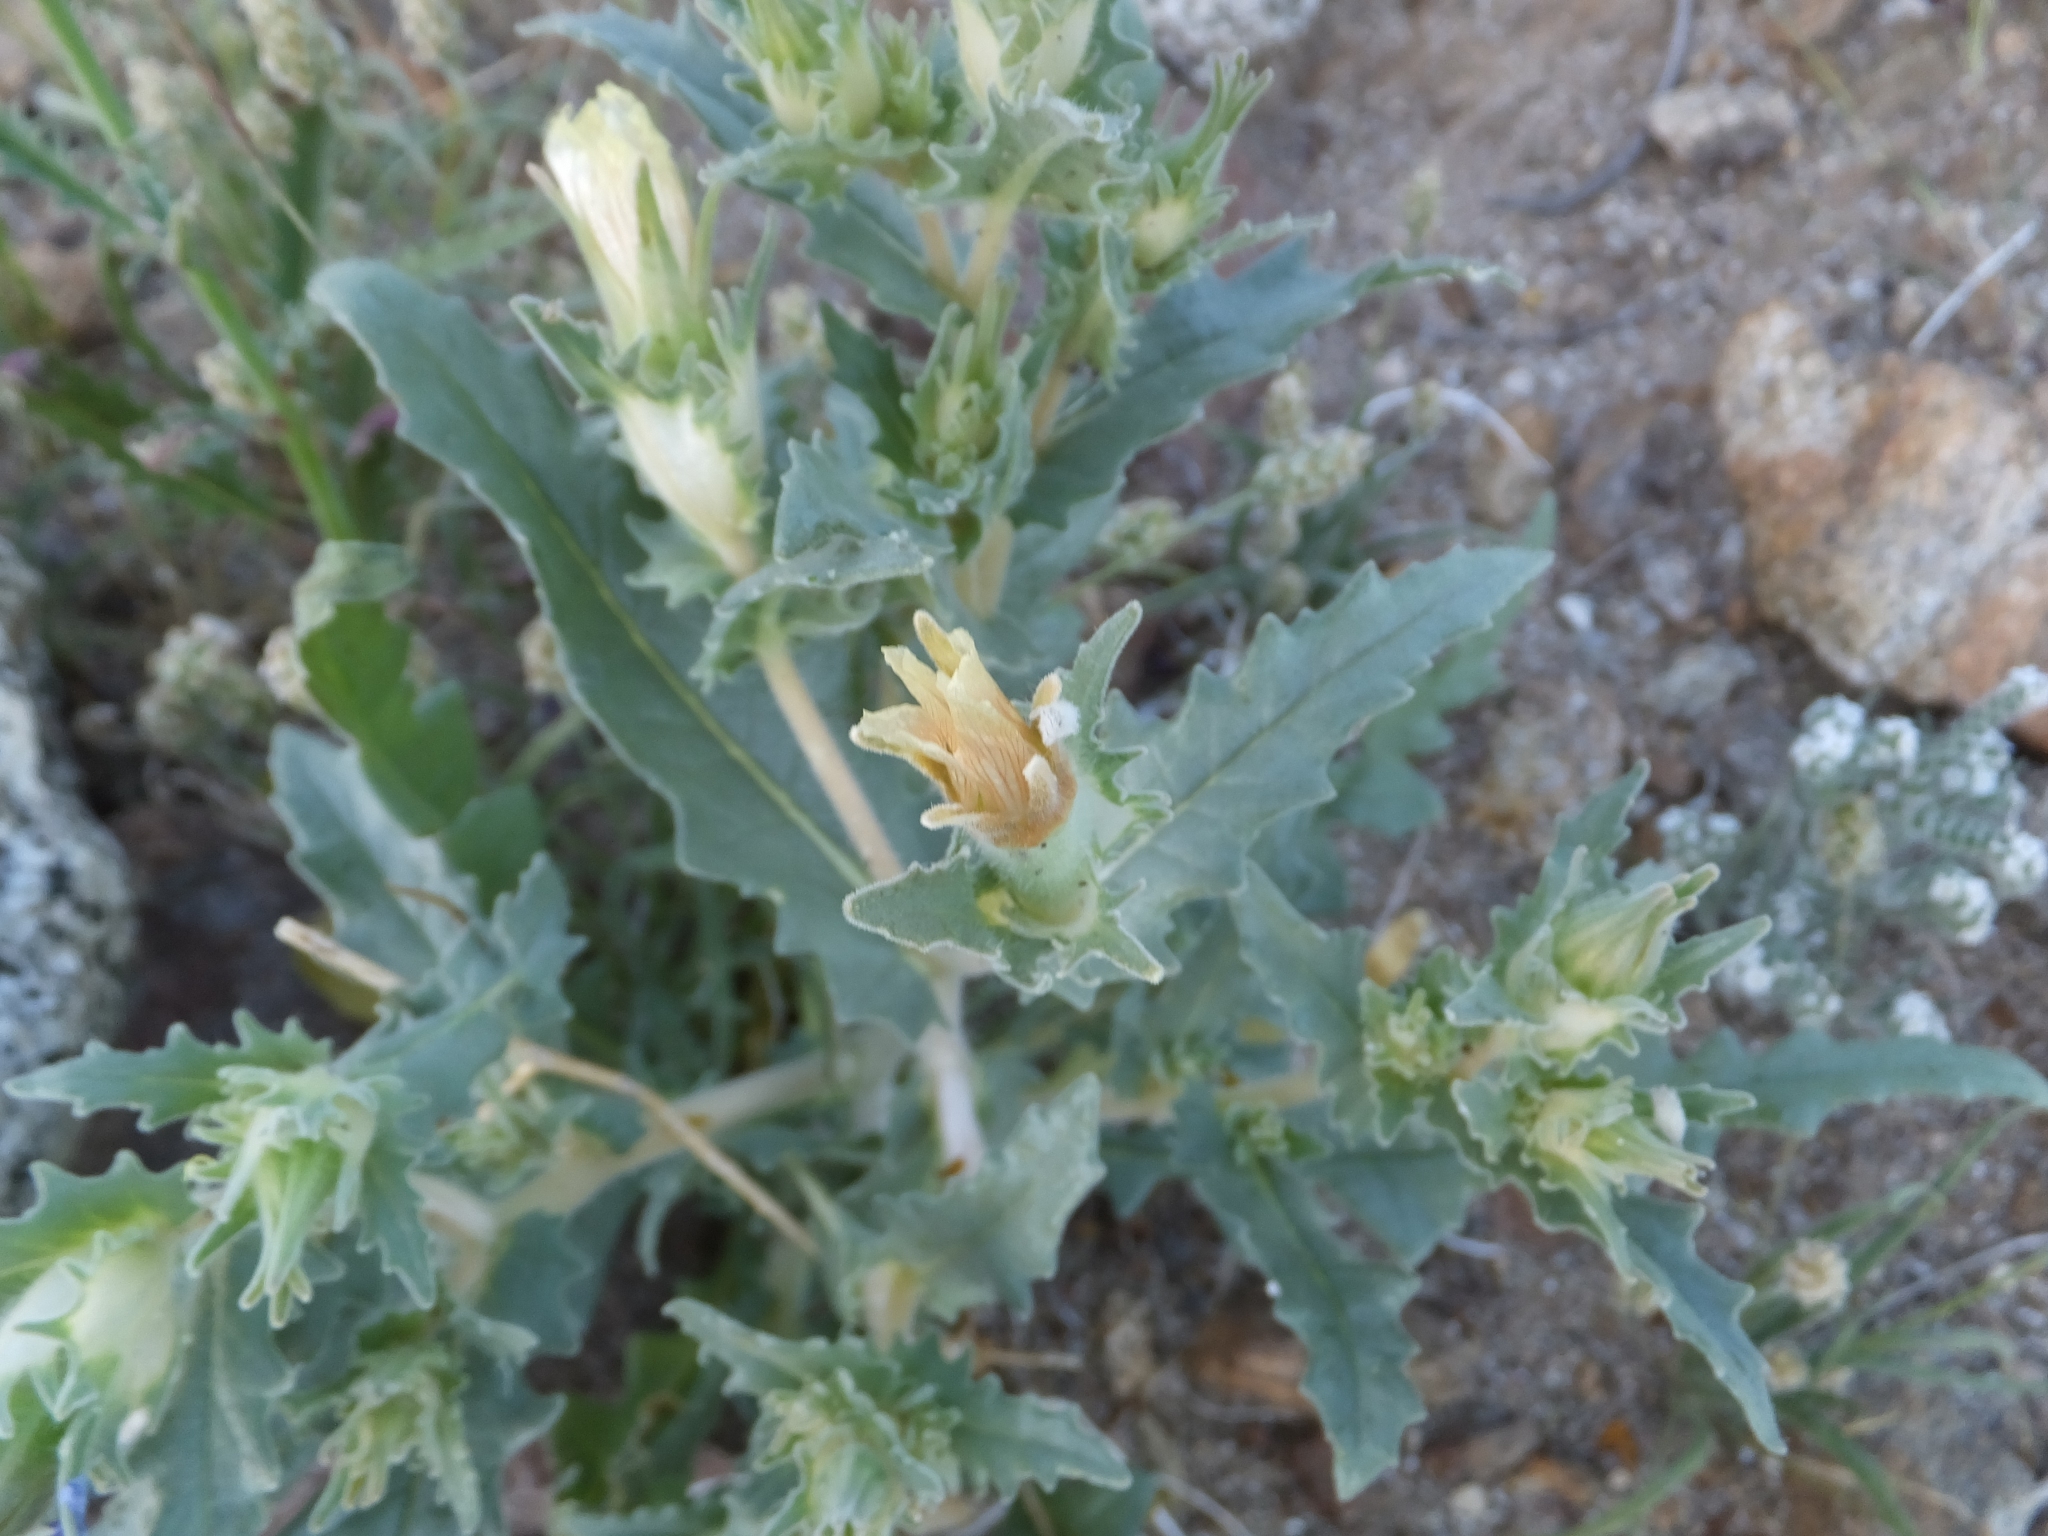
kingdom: Plantae
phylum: Tracheophyta
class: Magnoliopsida
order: Cornales
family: Loasaceae
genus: Mentzelia
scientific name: Mentzelia involucrata
